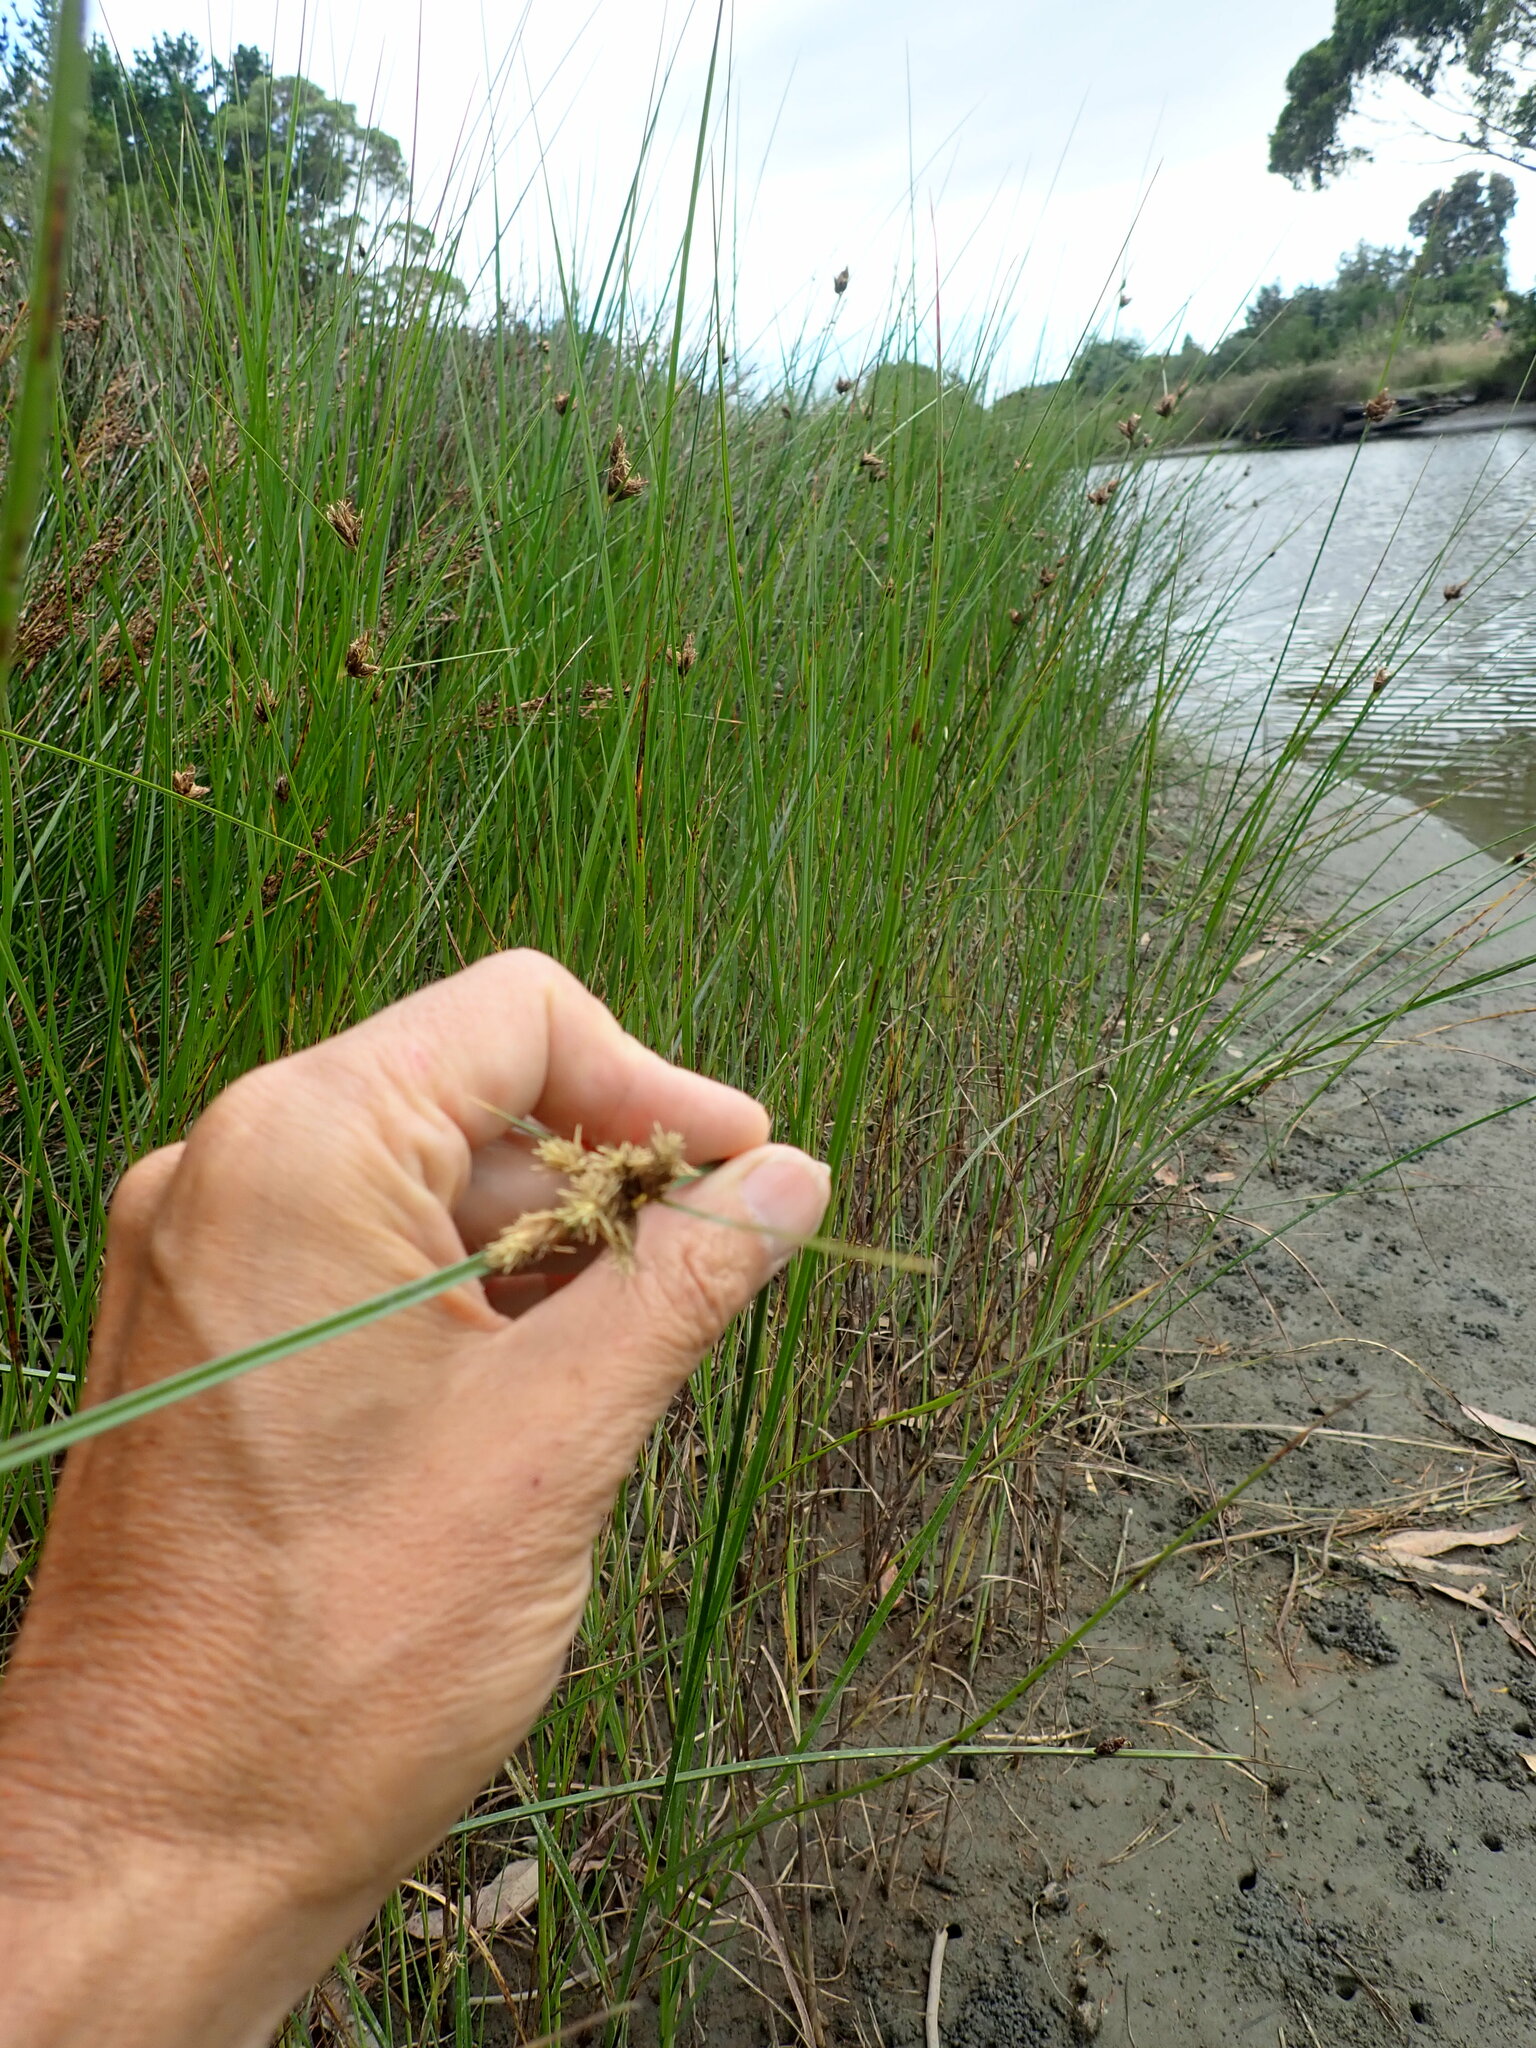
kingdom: Plantae
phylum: Tracheophyta
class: Liliopsida
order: Poales
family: Cyperaceae
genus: Bolboschoenus
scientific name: Bolboschoenus caldwellii
